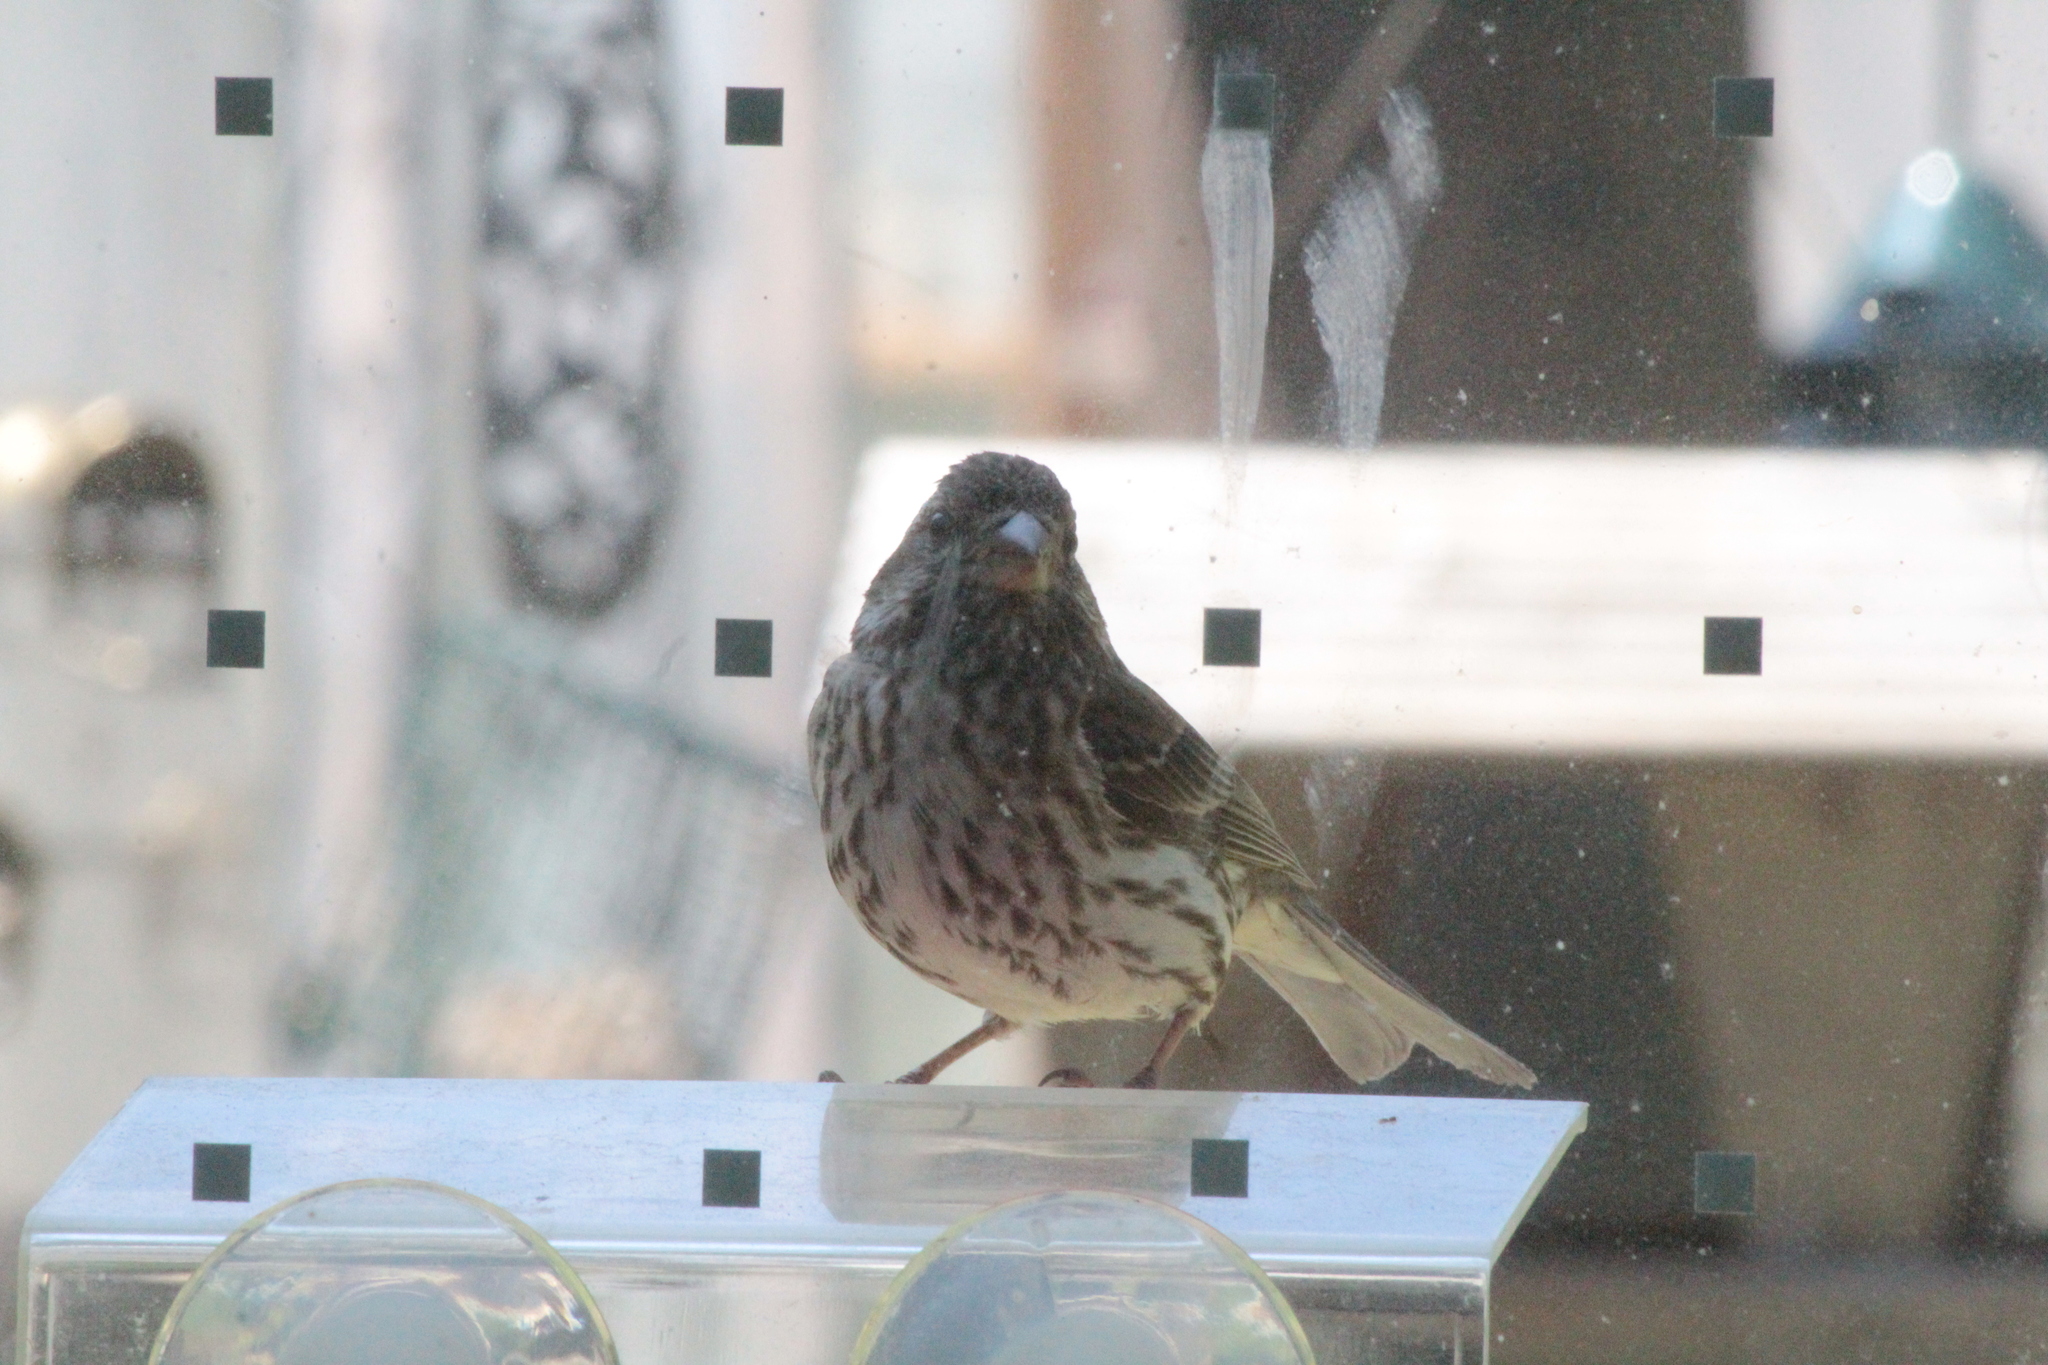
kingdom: Animalia
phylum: Chordata
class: Aves
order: Passeriformes
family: Fringillidae
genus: Haemorhous
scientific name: Haemorhous purpureus
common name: Purple finch
